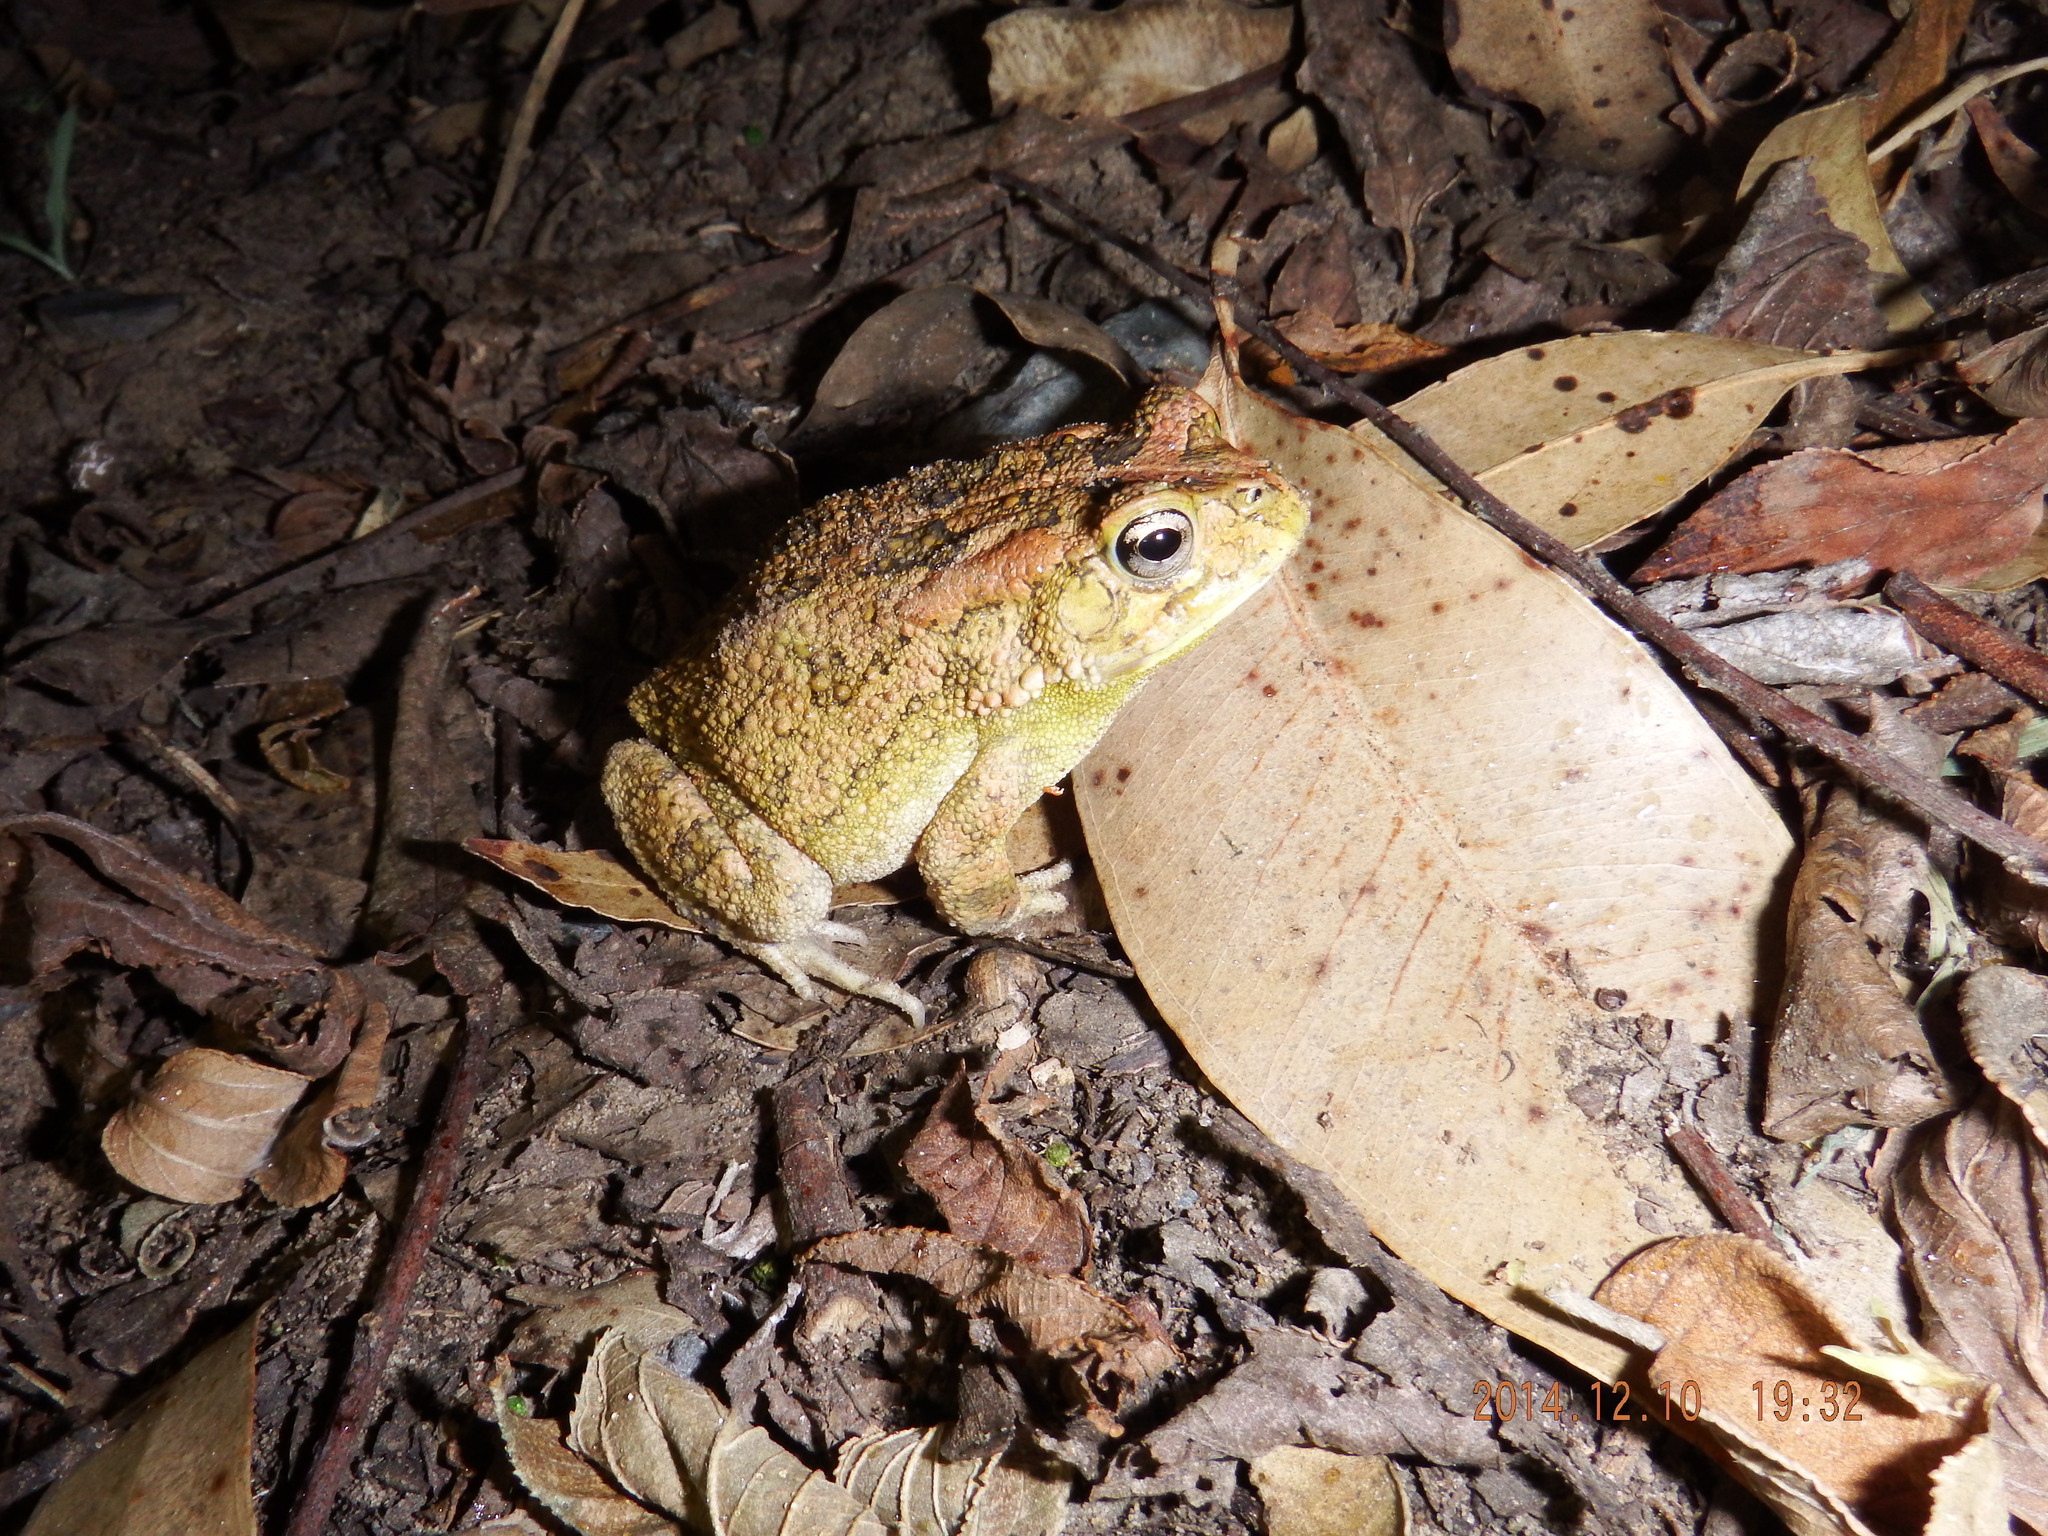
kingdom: Animalia
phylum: Chordata
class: Amphibia
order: Anura
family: Bufonidae
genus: Sclerophrys
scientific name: Sclerophrys gutturalis
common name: African common toad
